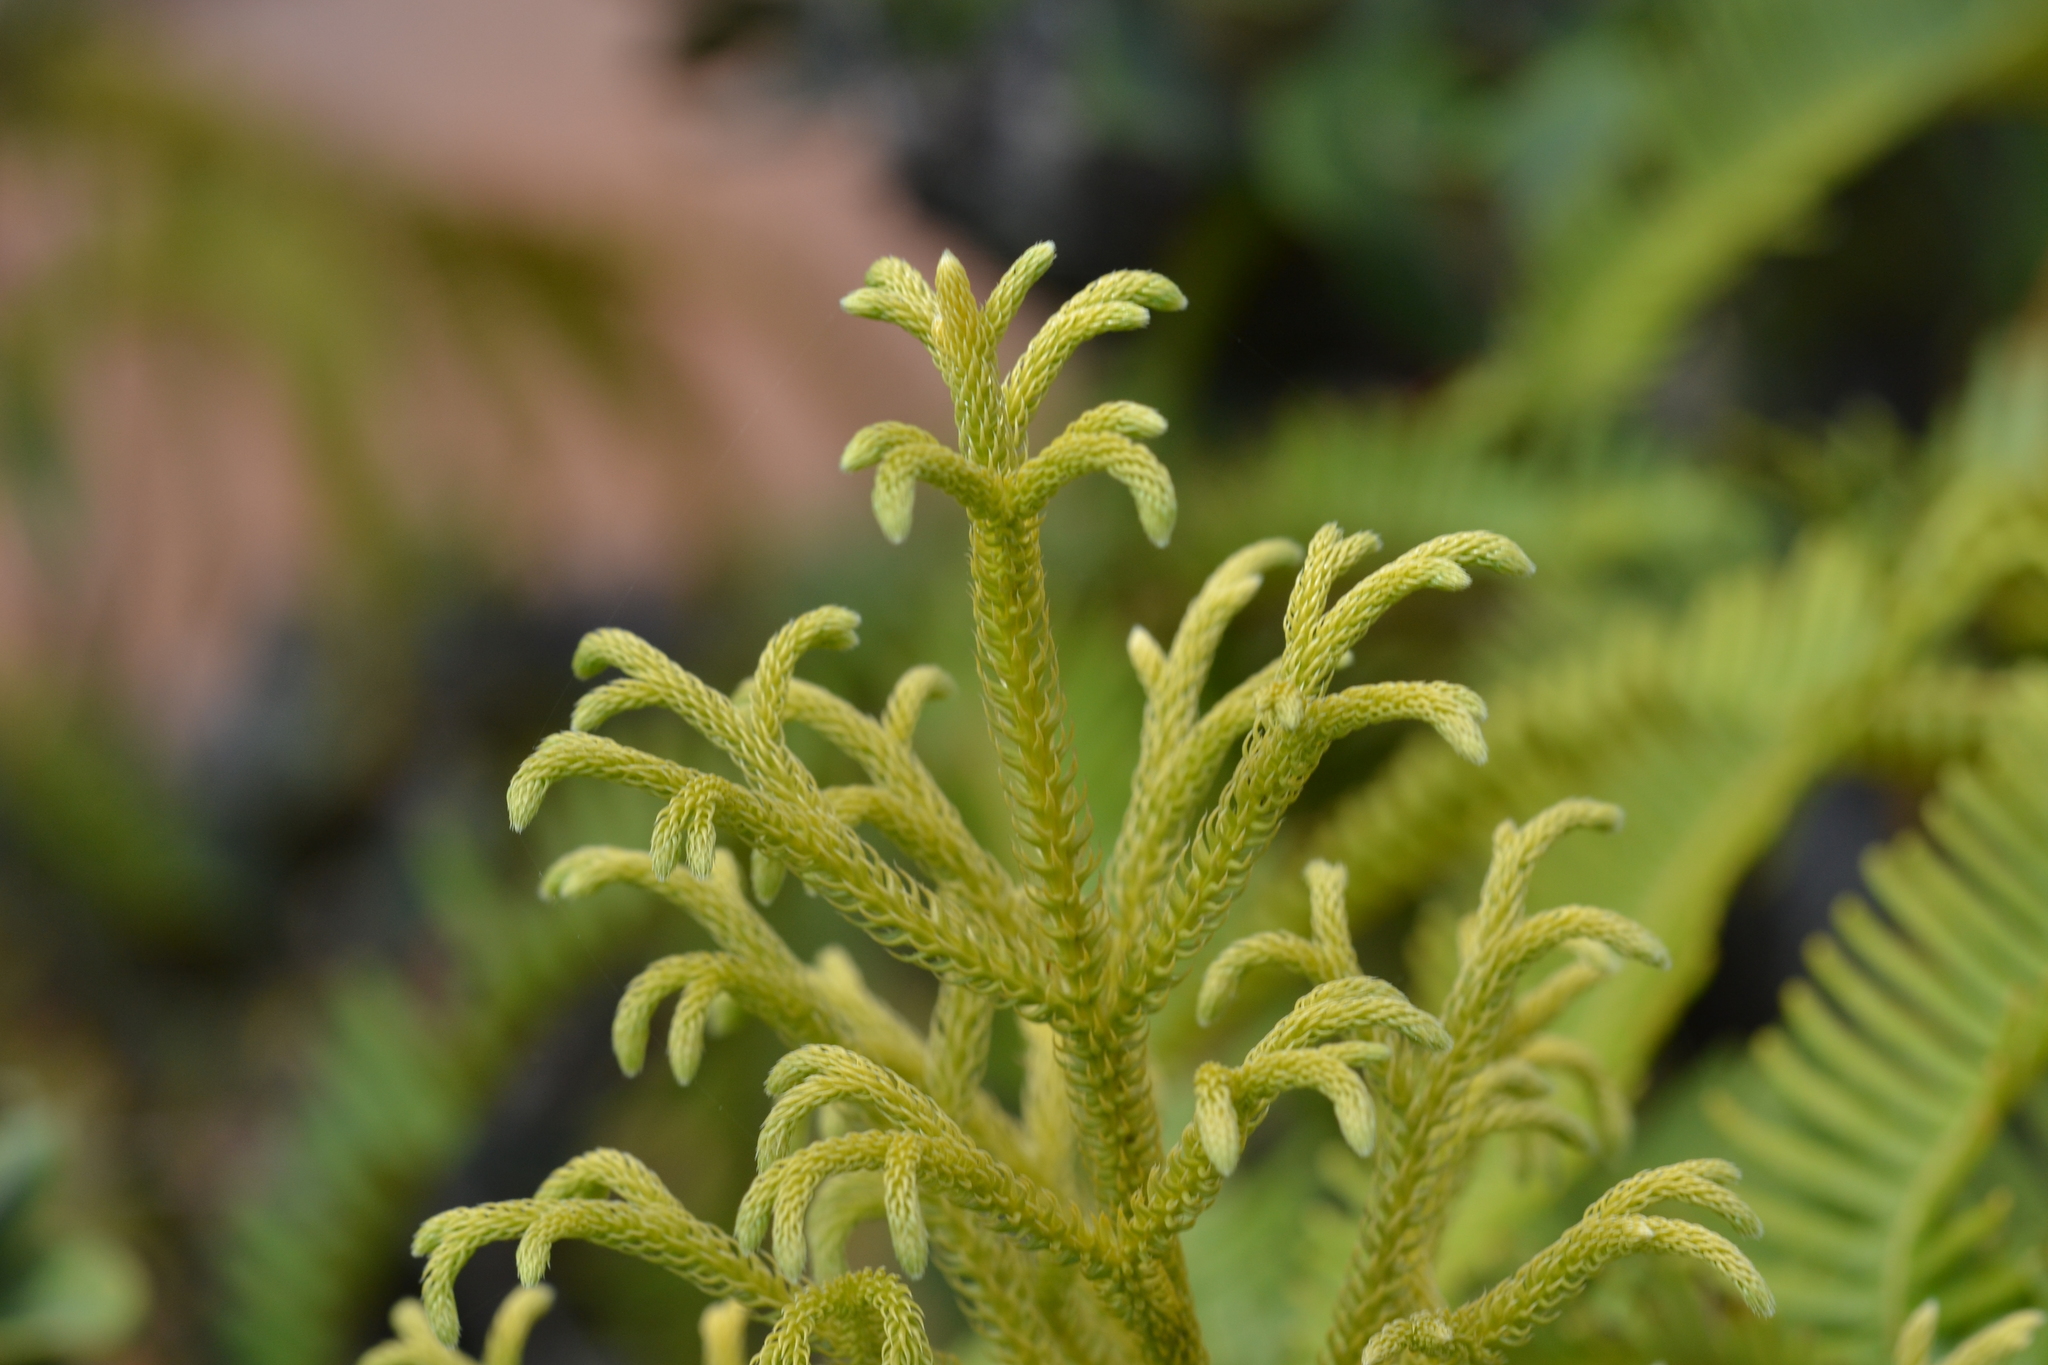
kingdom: Plantae
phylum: Tracheophyta
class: Lycopodiopsida
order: Lycopodiales
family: Lycopodiaceae
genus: Palhinhaea
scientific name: Palhinhaea cernua
